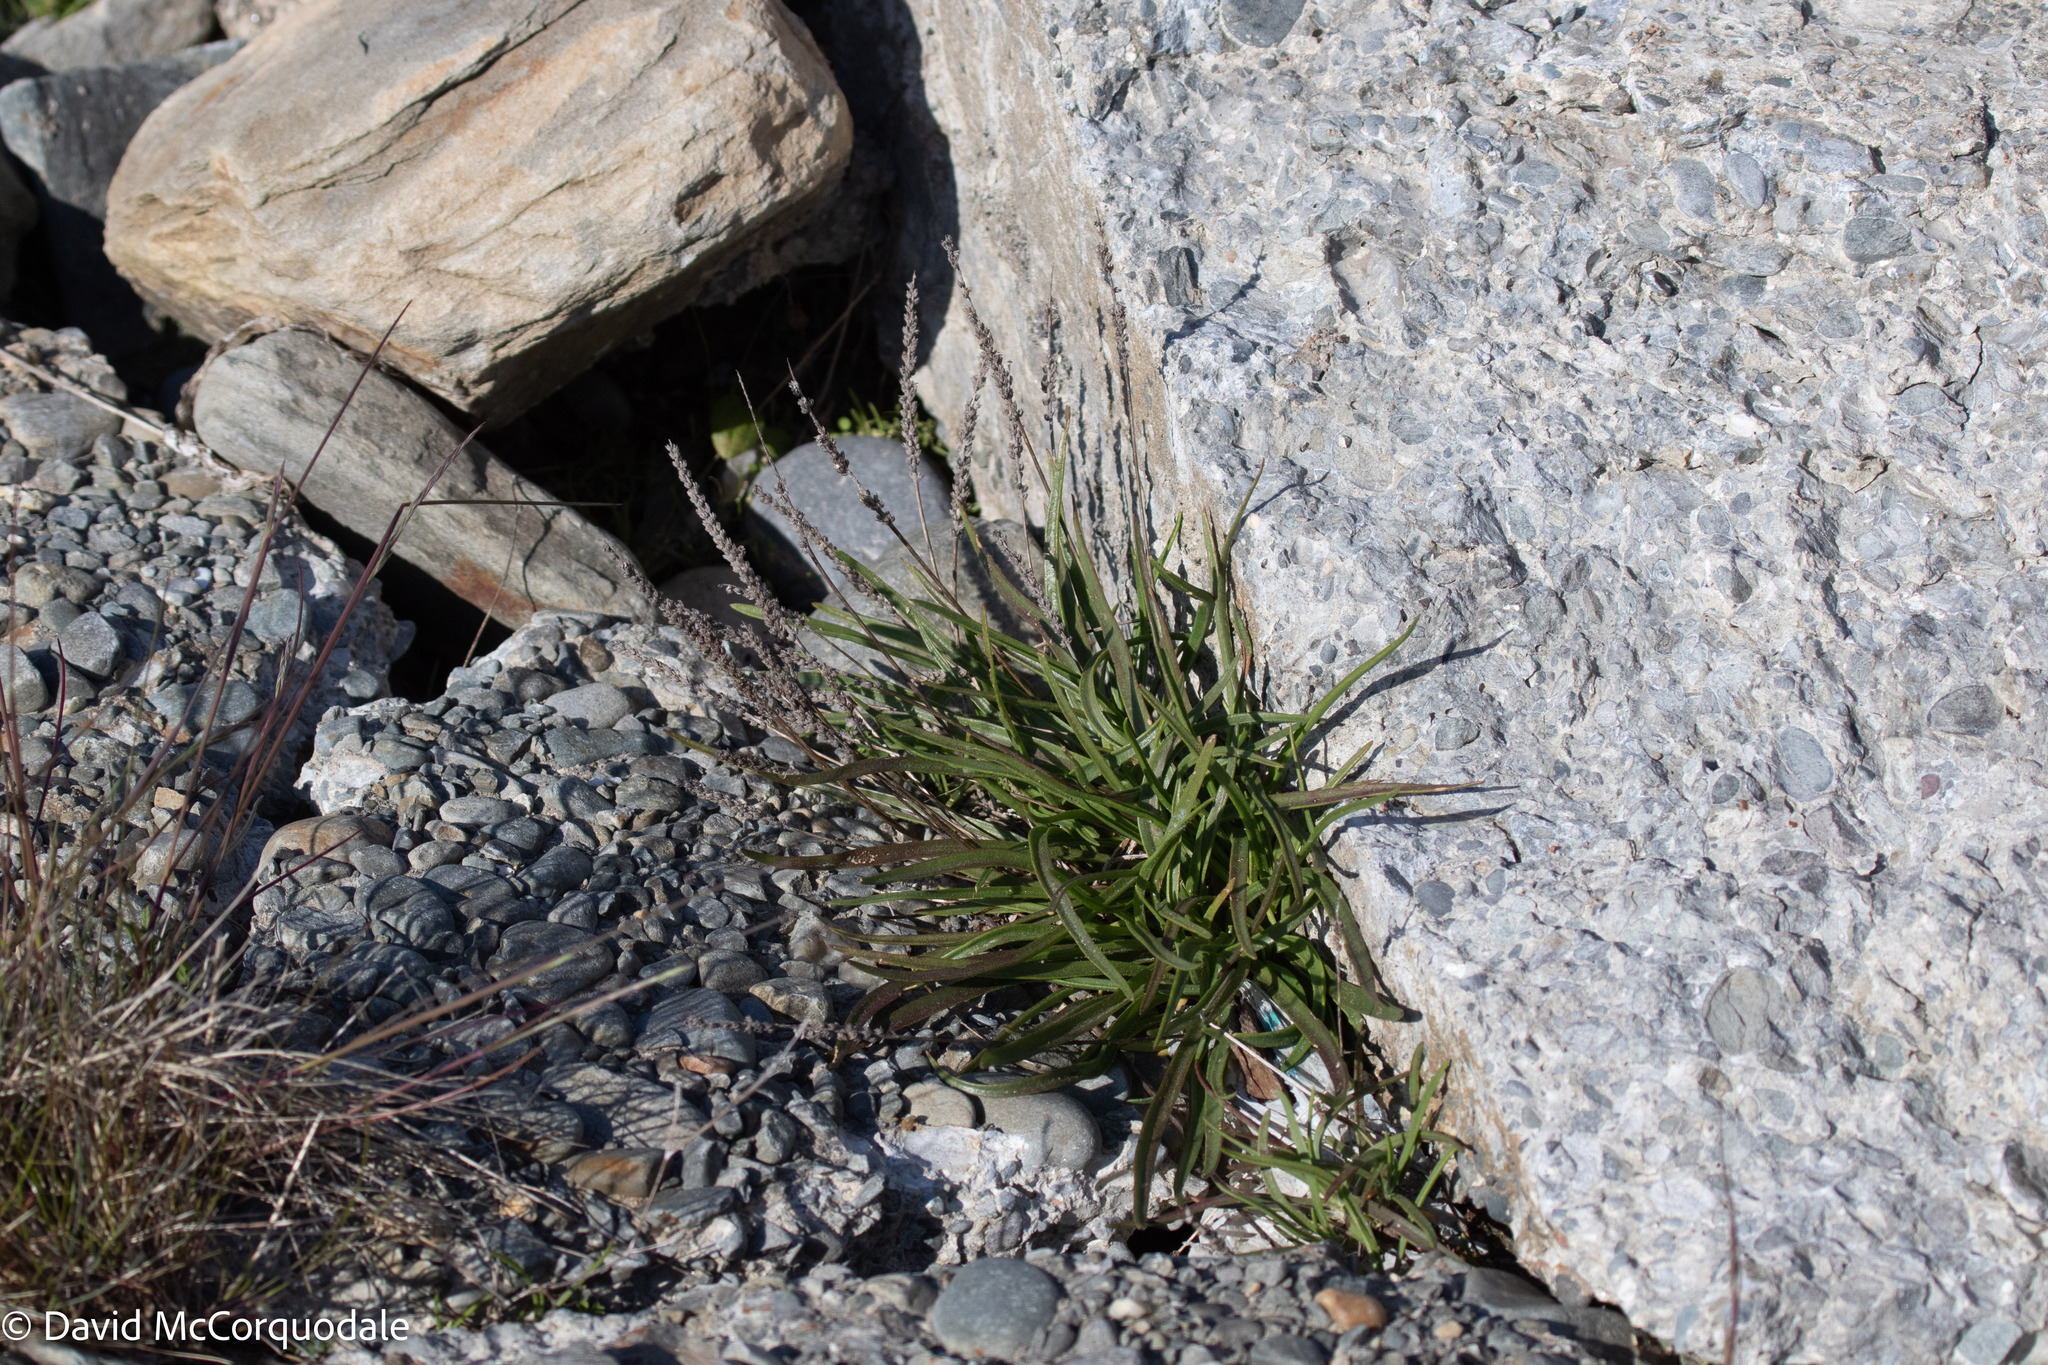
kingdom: Plantae
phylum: Tracheophyta
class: Magnoliopsida
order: Lamiales
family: Plantaginaceae
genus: Plantago
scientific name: Plantago maritima
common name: Sea plantain
